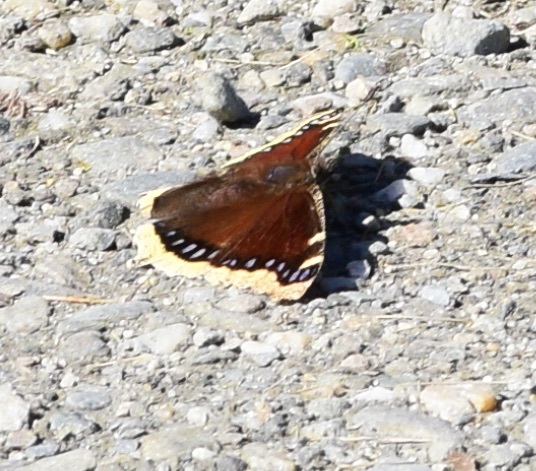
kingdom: Animalia
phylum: Arthropoda
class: Insecta
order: Lepidoptera
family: Nymphalidae
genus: Nymphalis
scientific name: Nymphalis antiopa
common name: Camberwell beauty
